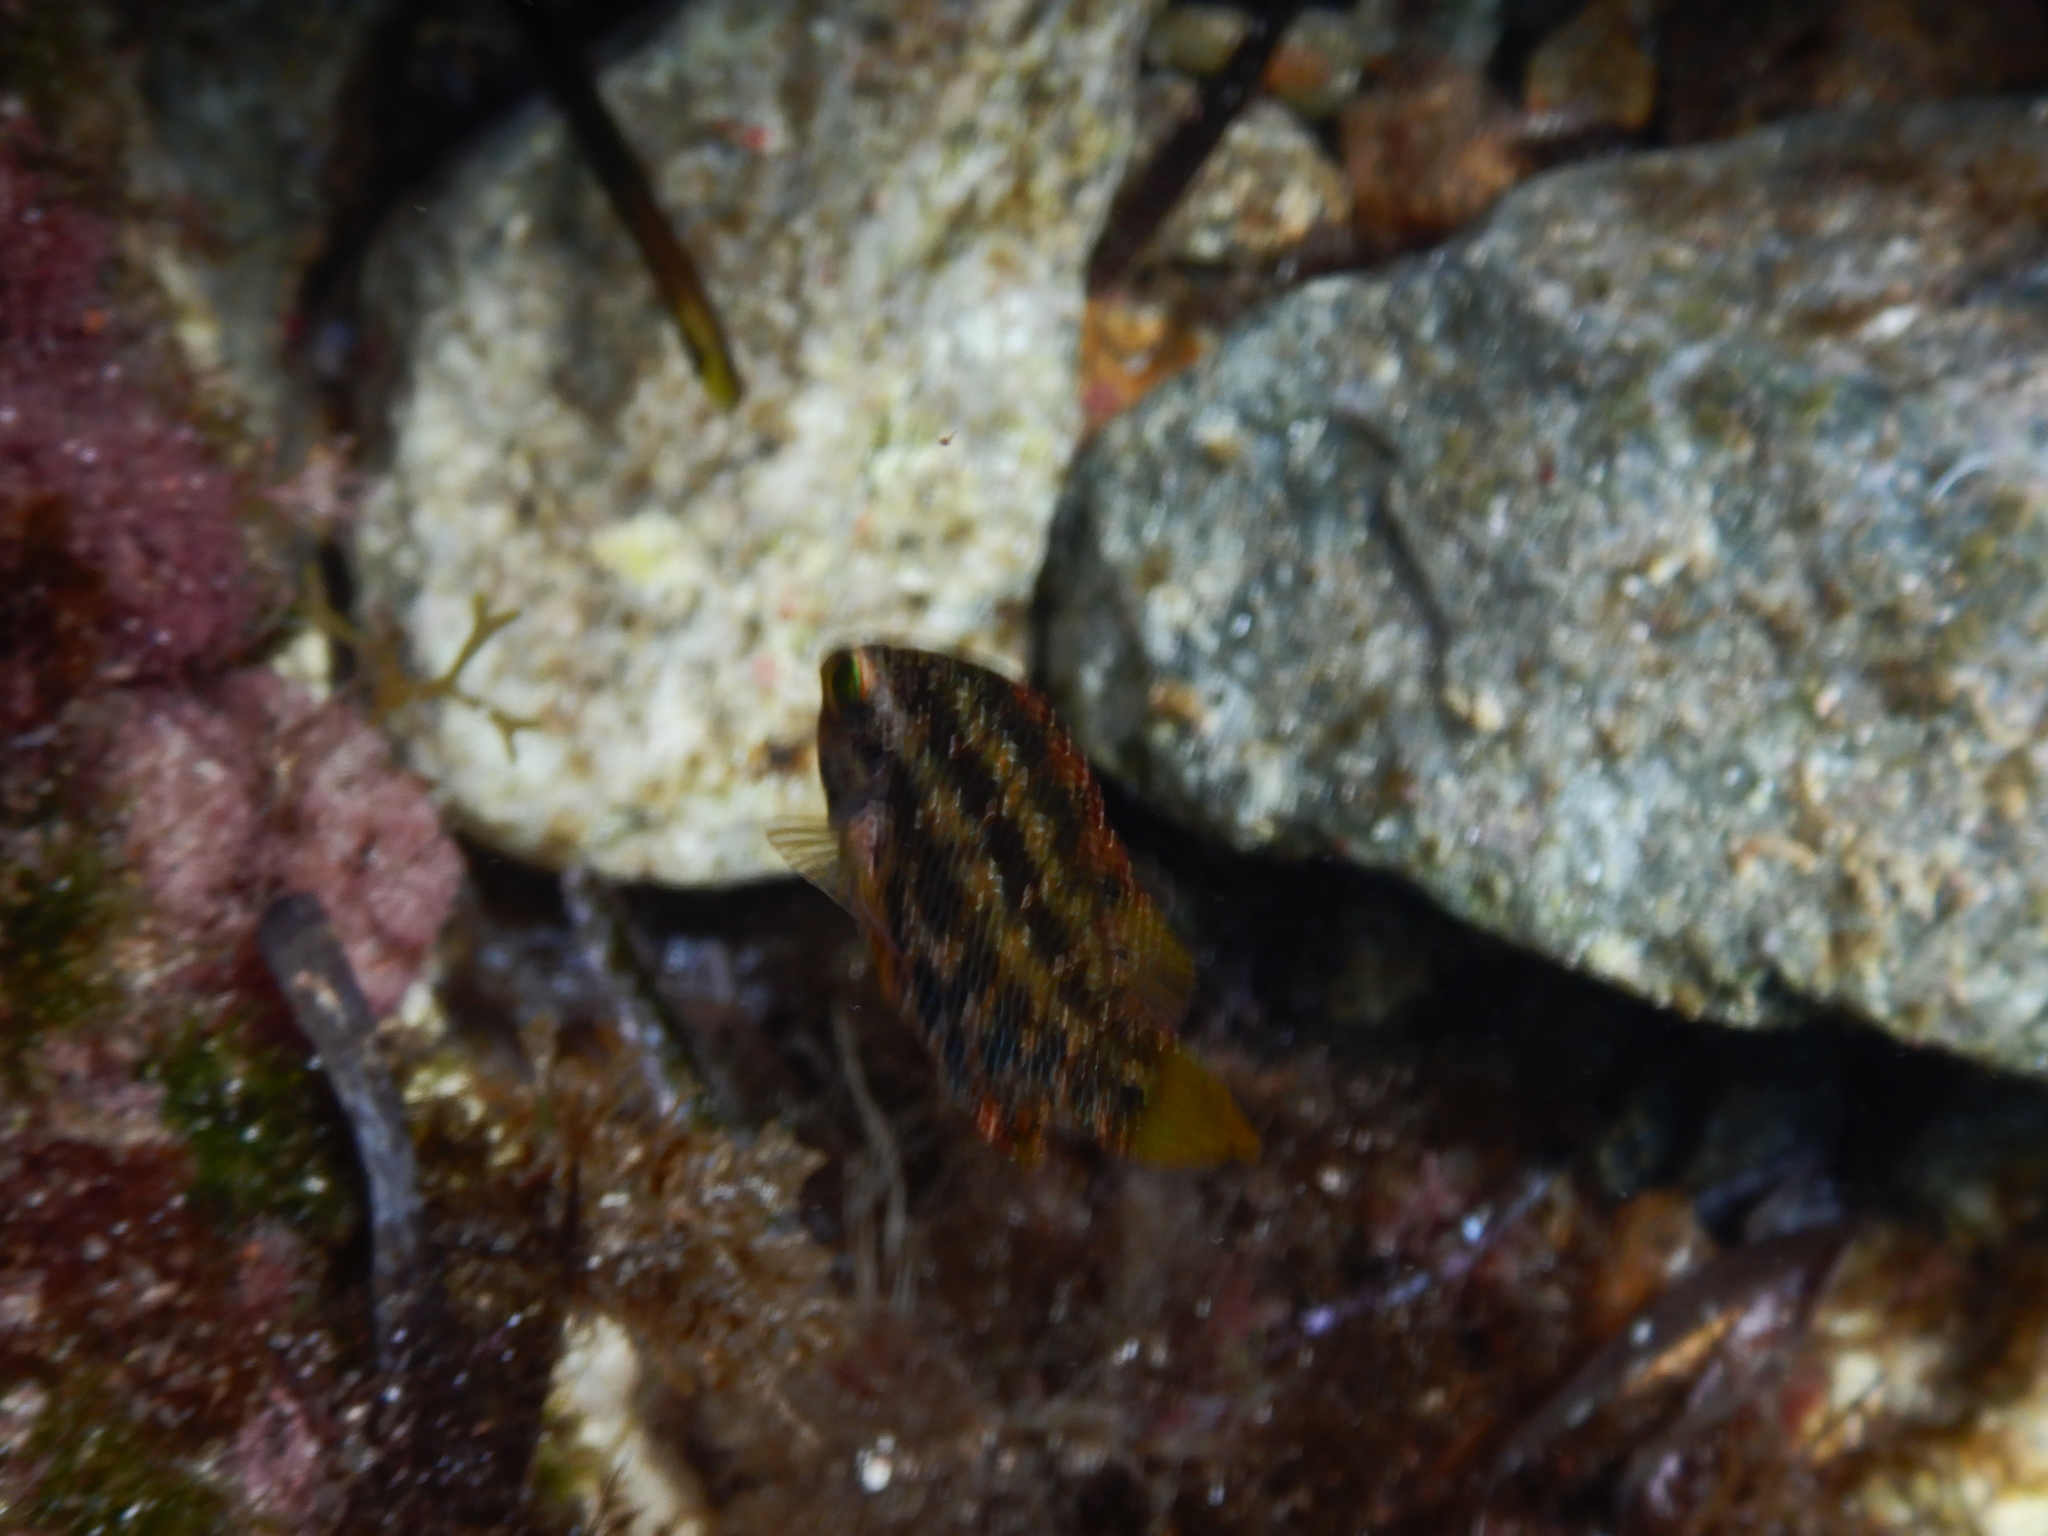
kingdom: Animalia
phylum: Chordata
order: Perciformes
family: Labridae
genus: Symphodus
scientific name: Symphodus roissali
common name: Five-spotted wrasse
